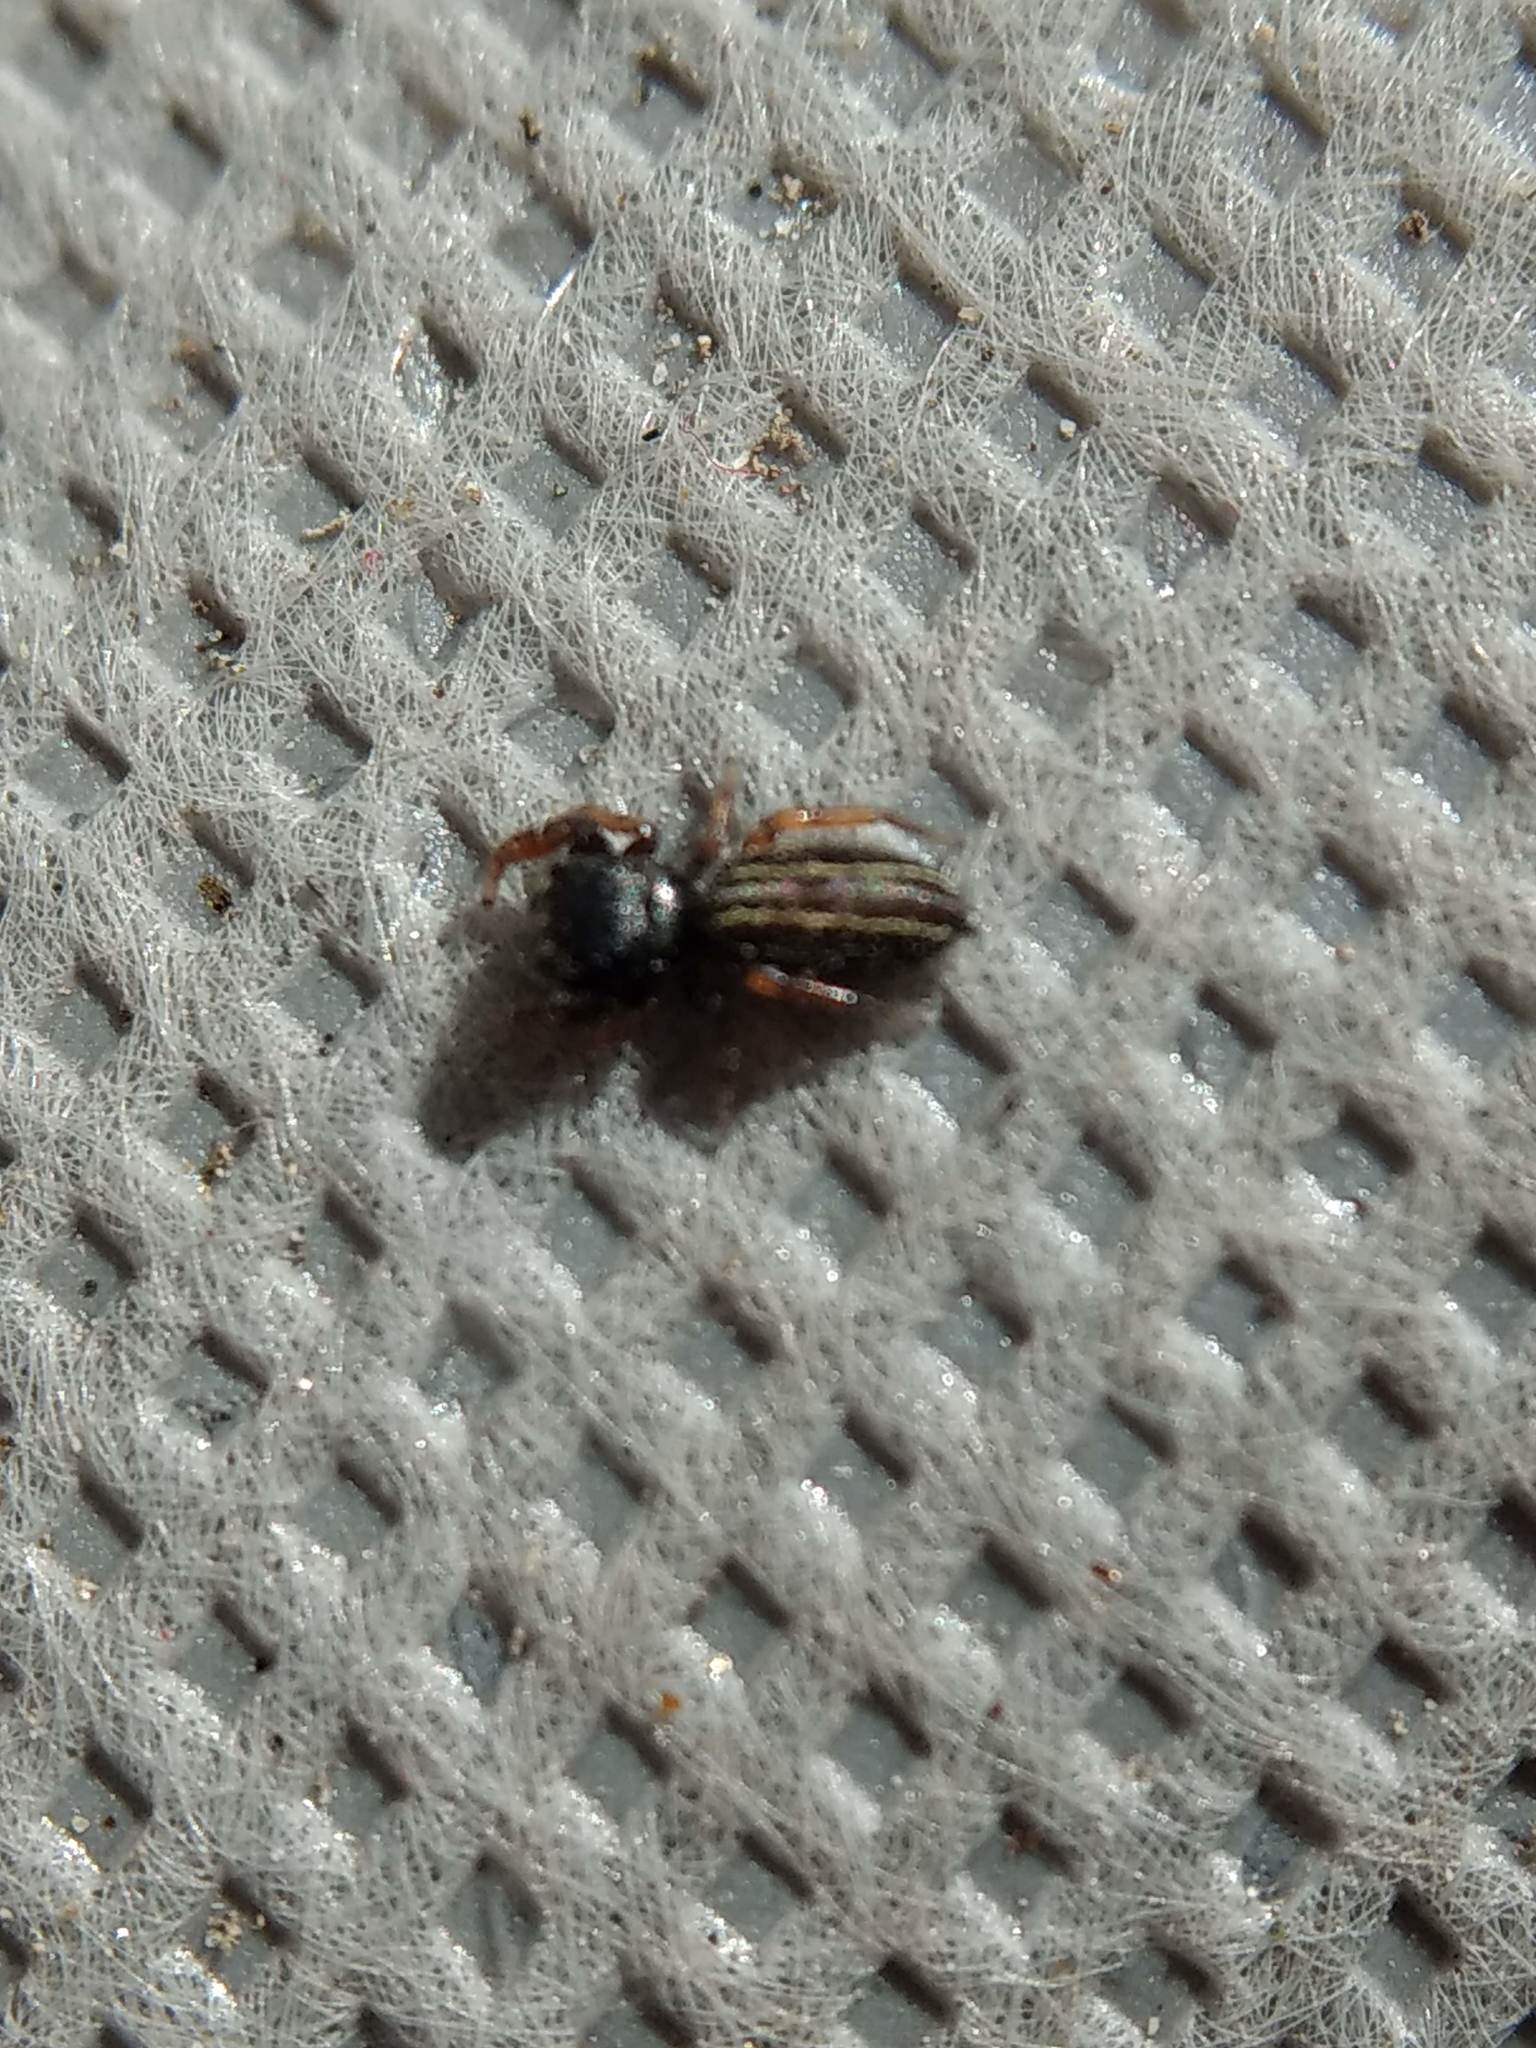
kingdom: Animalia
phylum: Arthropoda
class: Arachnida
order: Araneae
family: Salticidae
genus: Metacyrba
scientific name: Metacyrba taeniola
